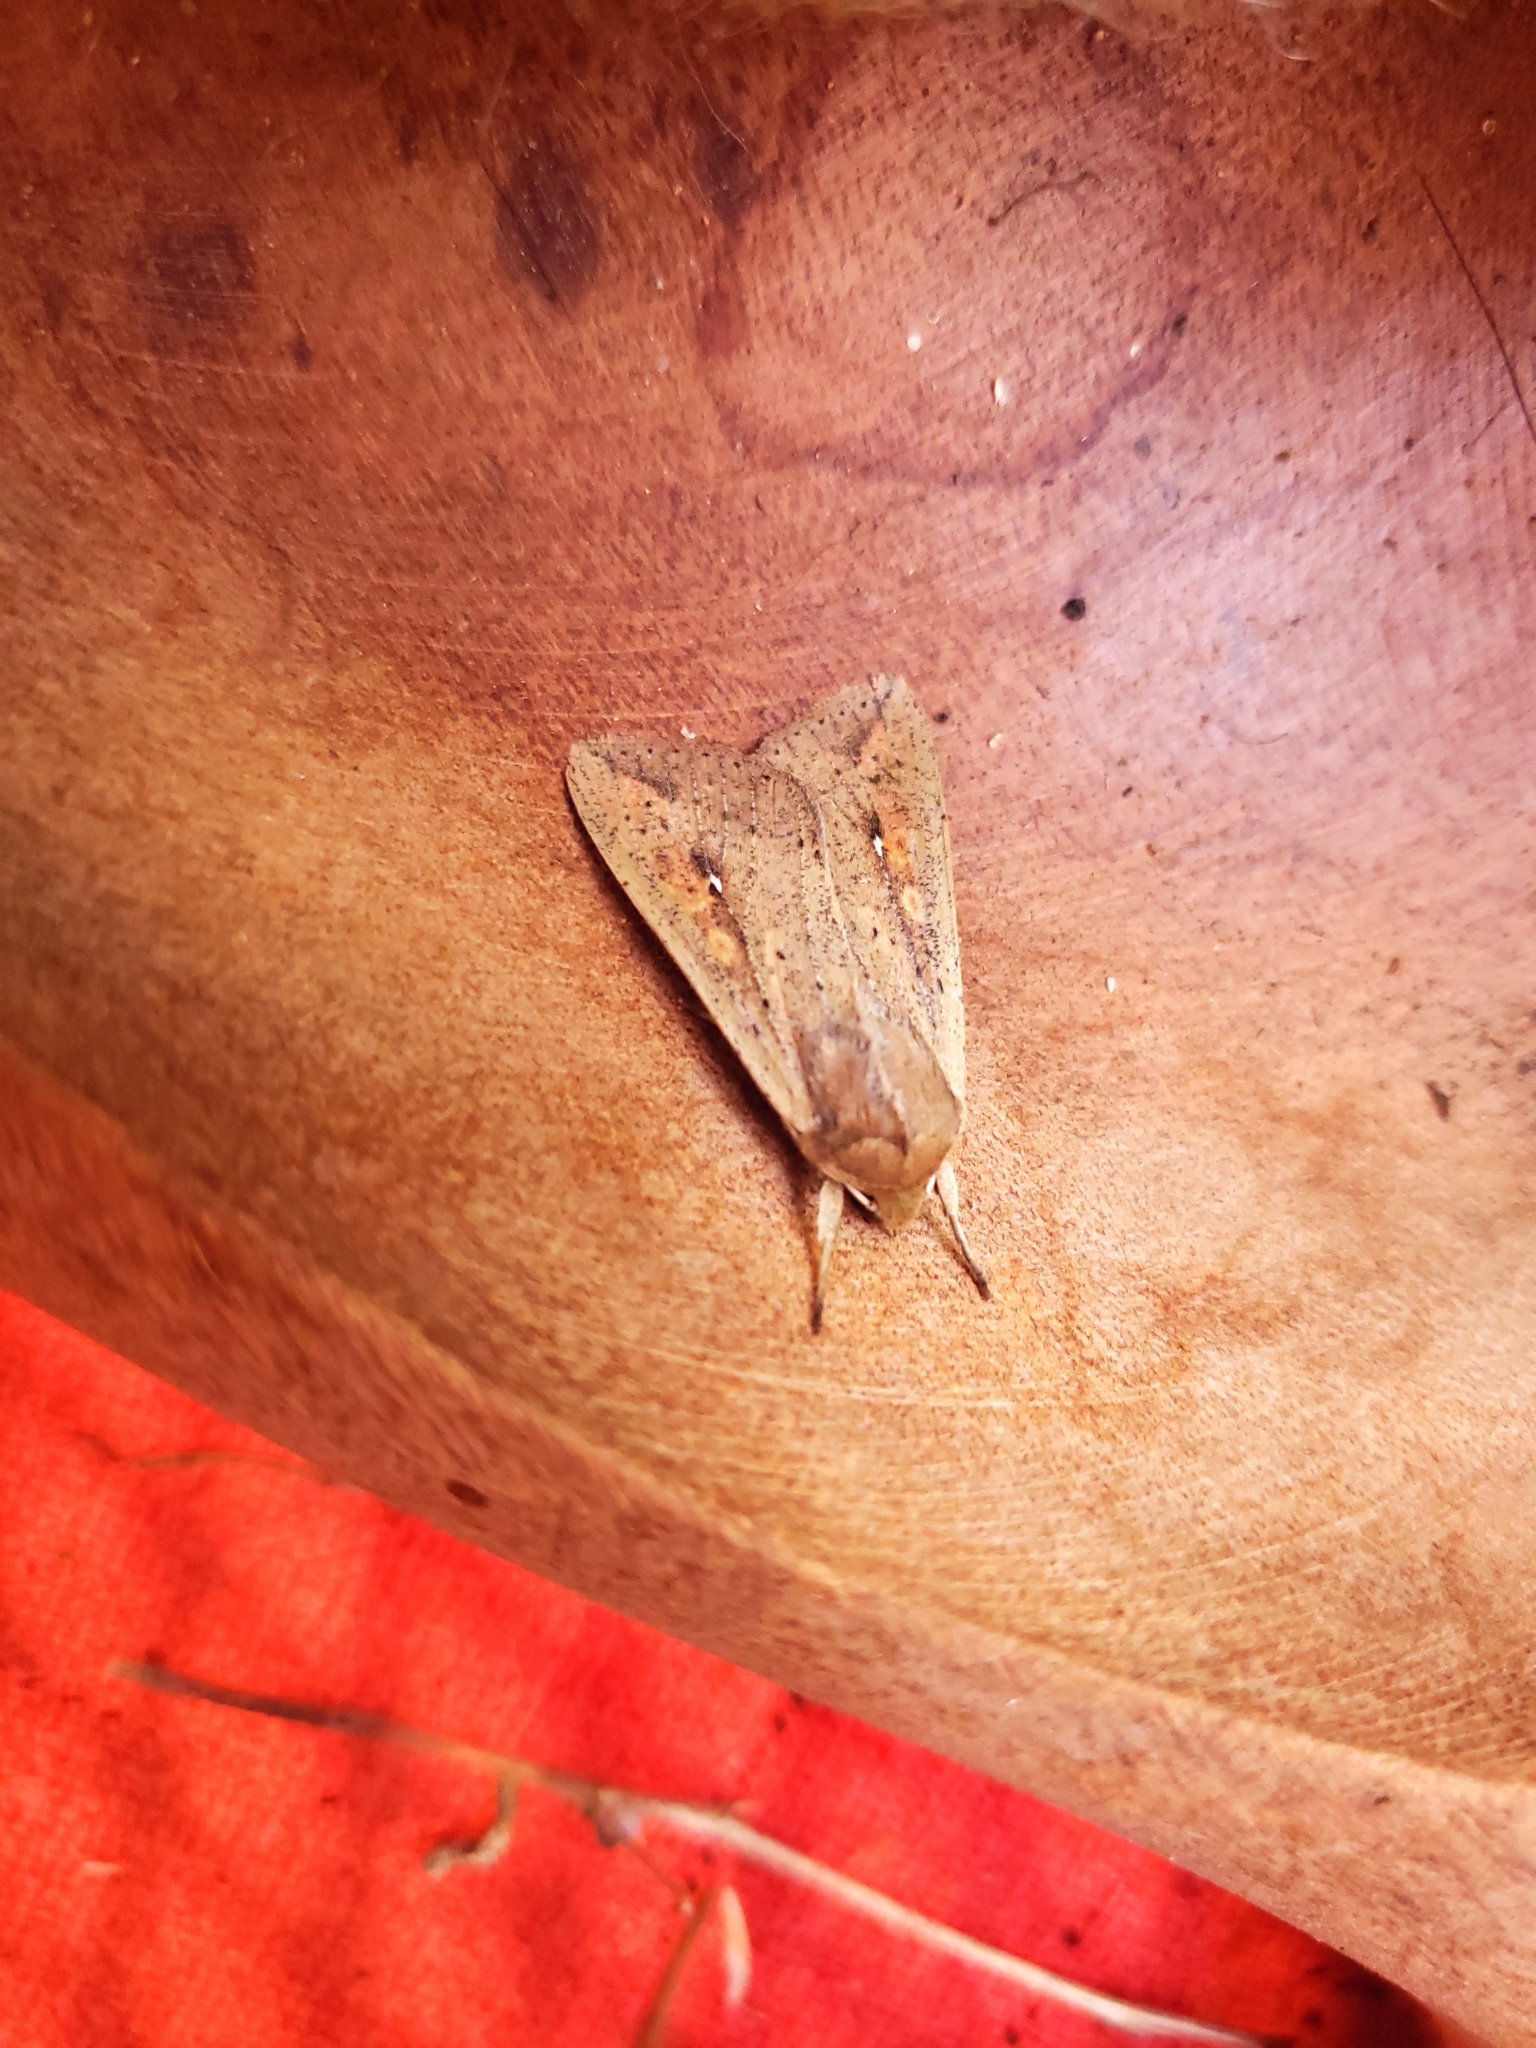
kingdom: Animalia
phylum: Arthropoda
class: Insecta
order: Lepidoptera
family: Noctuidae
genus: Mythimna
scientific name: Mythimna unipuncta
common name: White-speck
